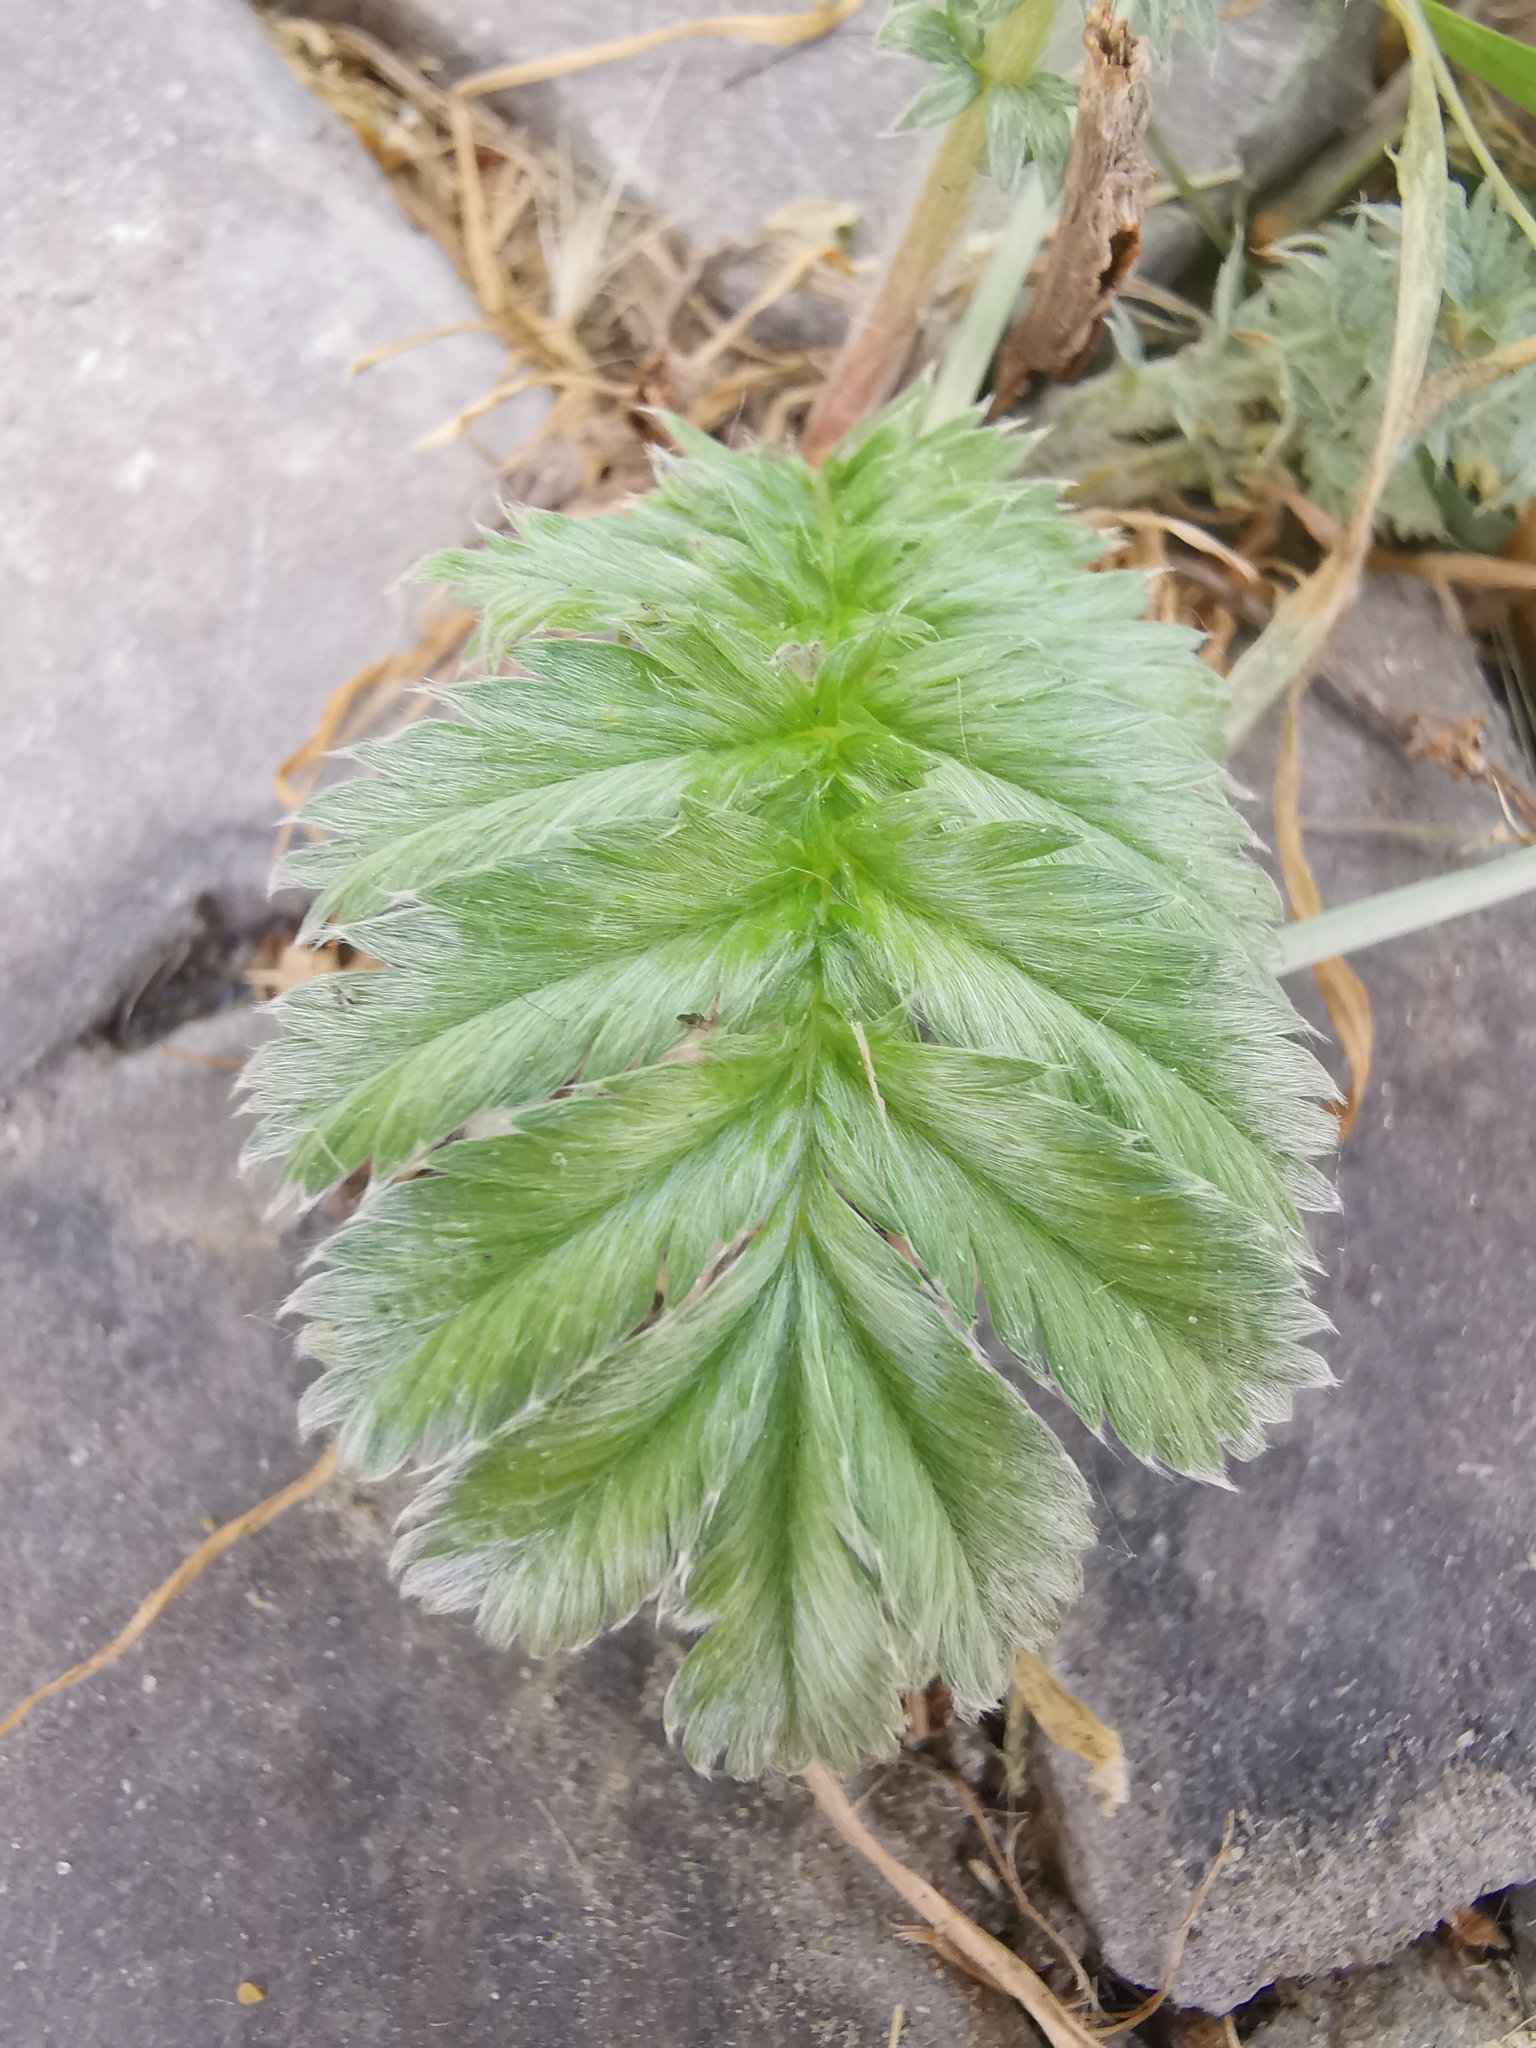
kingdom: Plantae
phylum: Tracheophyta
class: Magnoliopsida
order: Rosales
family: Rosaceae
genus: Argentina
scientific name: Argentina anserina
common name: Common silverweed
